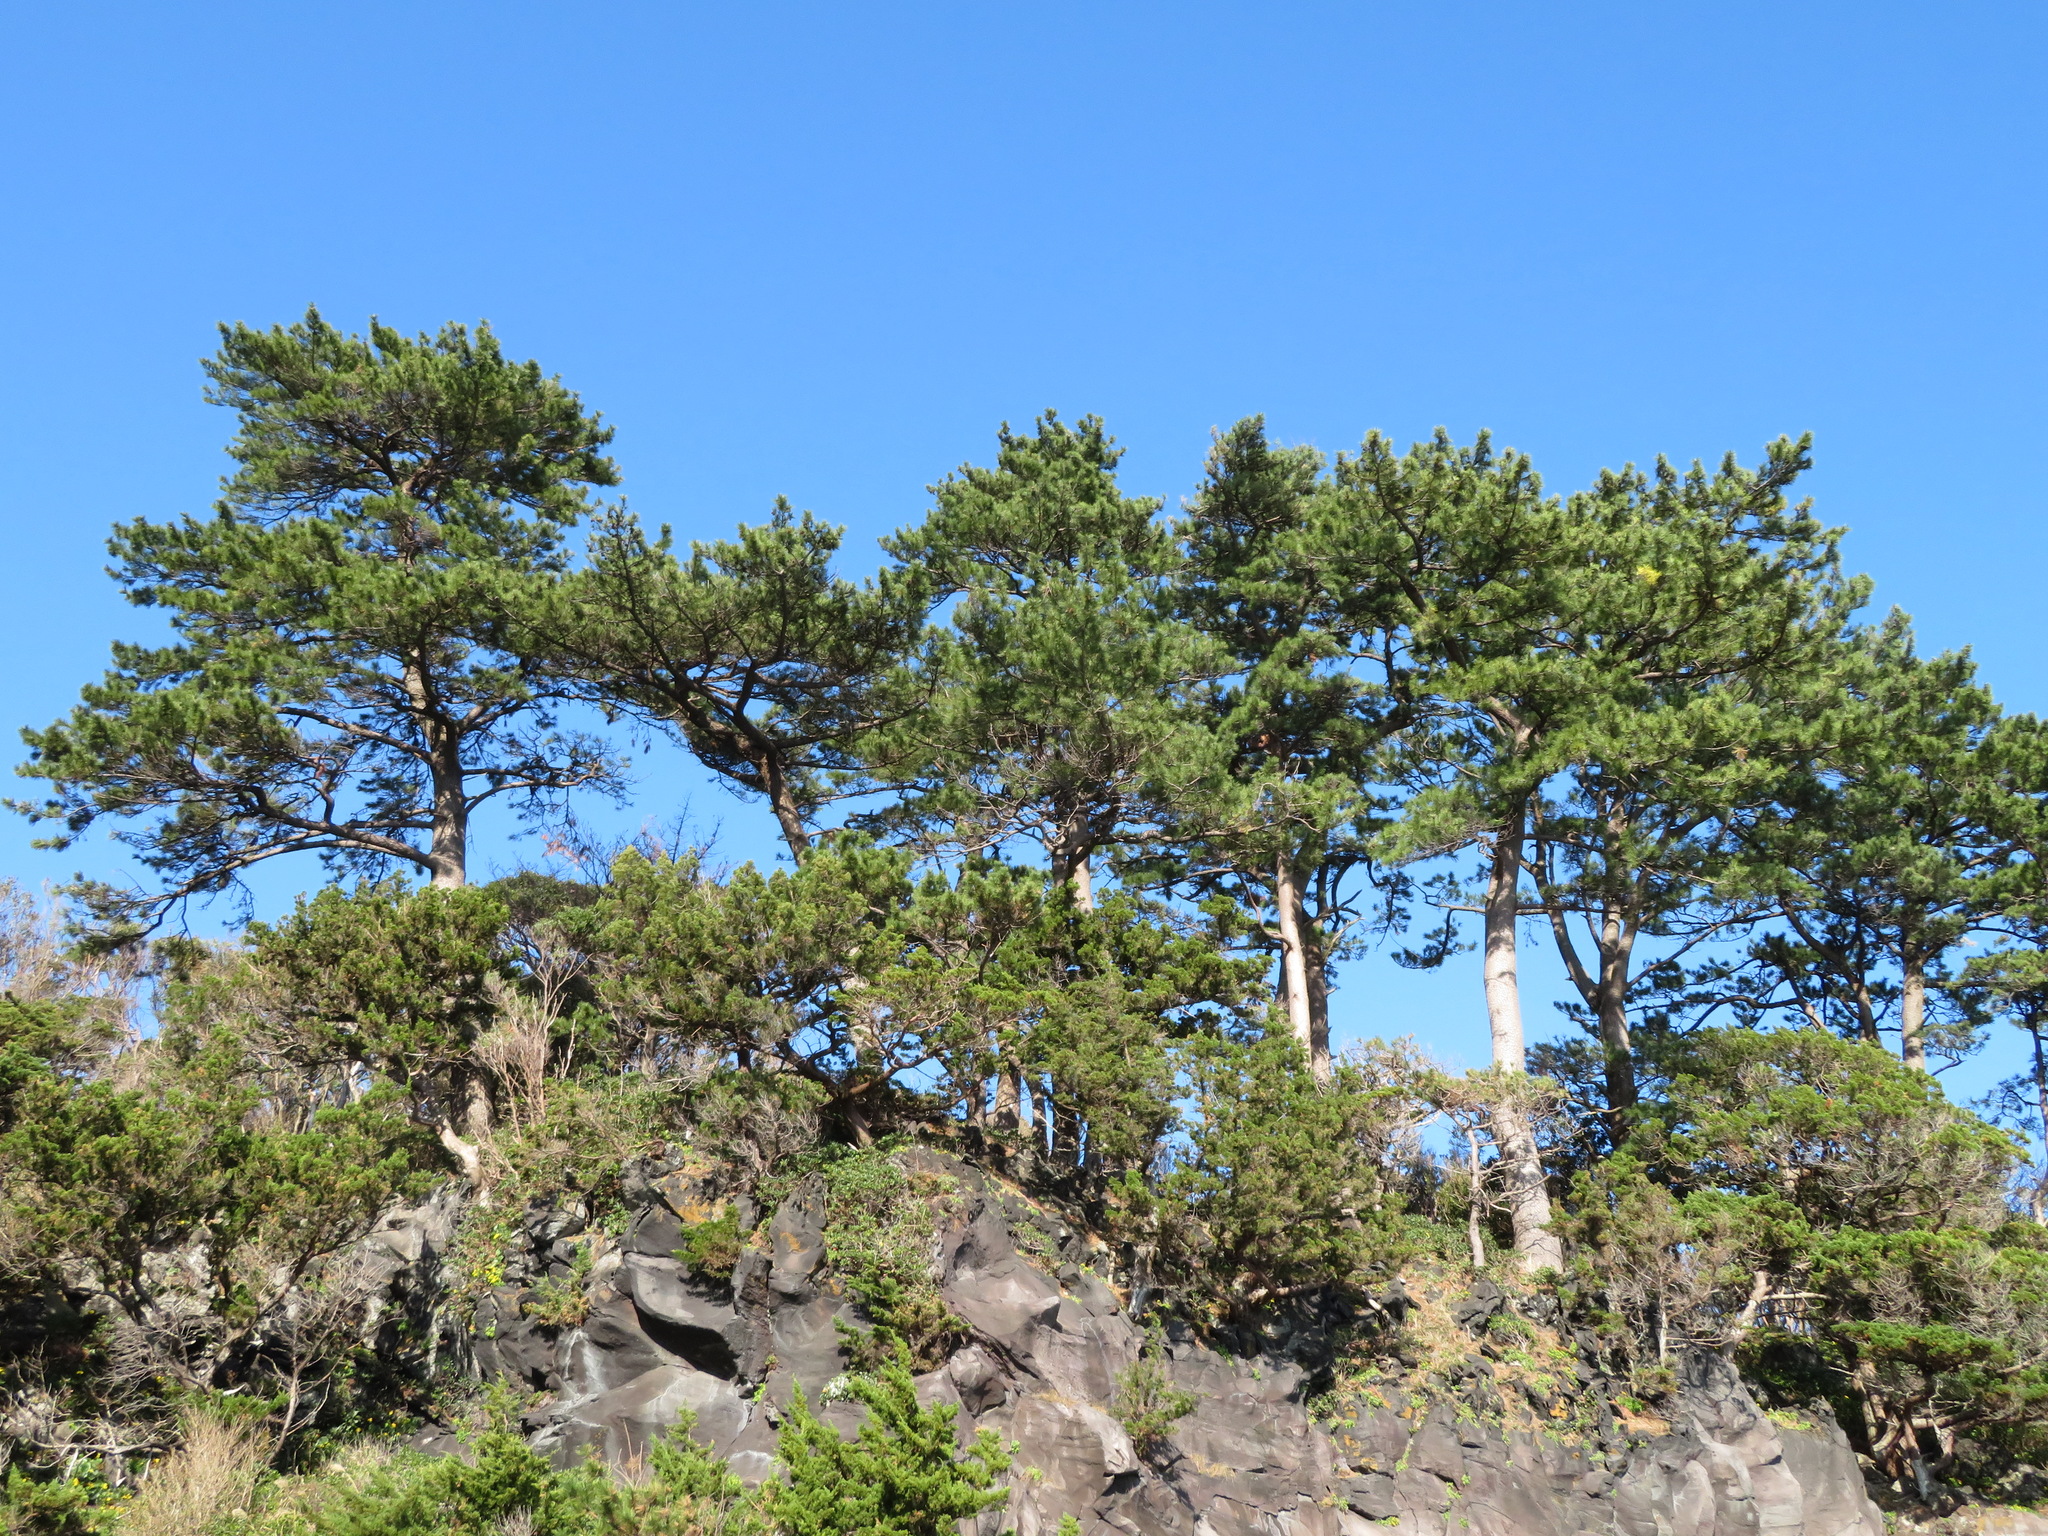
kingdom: Plantae
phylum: Tracheophyta
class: Pinopsida
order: Pinales
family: Pinaceae
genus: Pinus
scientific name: Pinus thunbergii
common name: Japanese black pine
